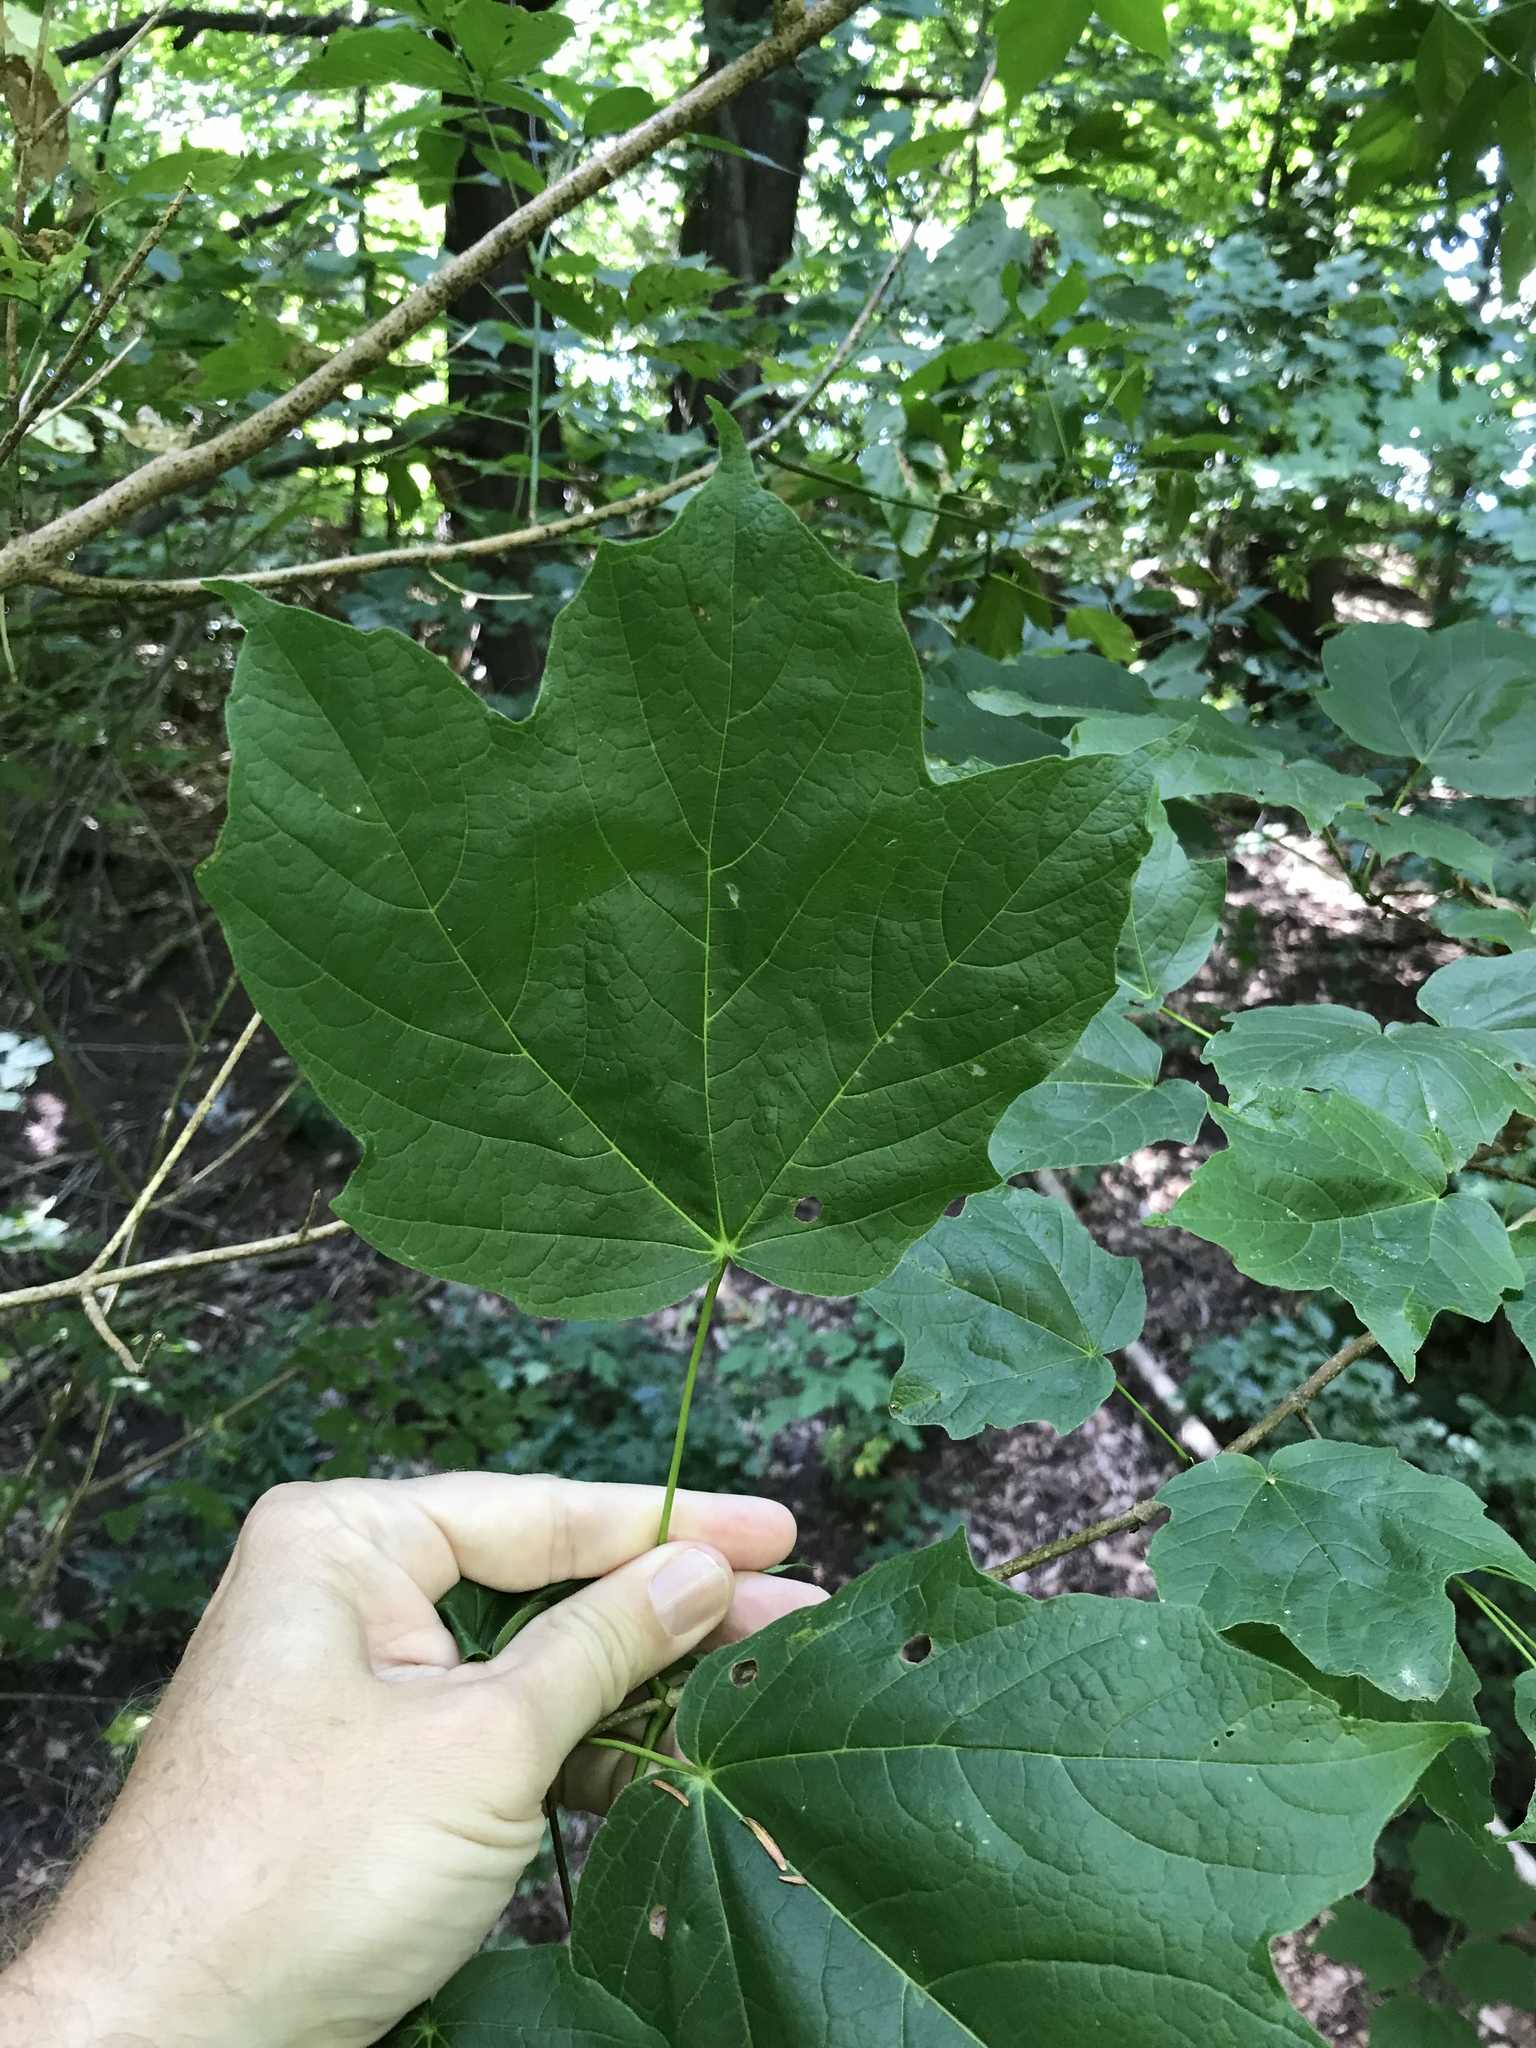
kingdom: Plantae
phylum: Tracheophyta
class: Magnoliopsida
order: Sapindales
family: Sapindaceae
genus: Acer
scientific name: Acer nigrum
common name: Black maple
